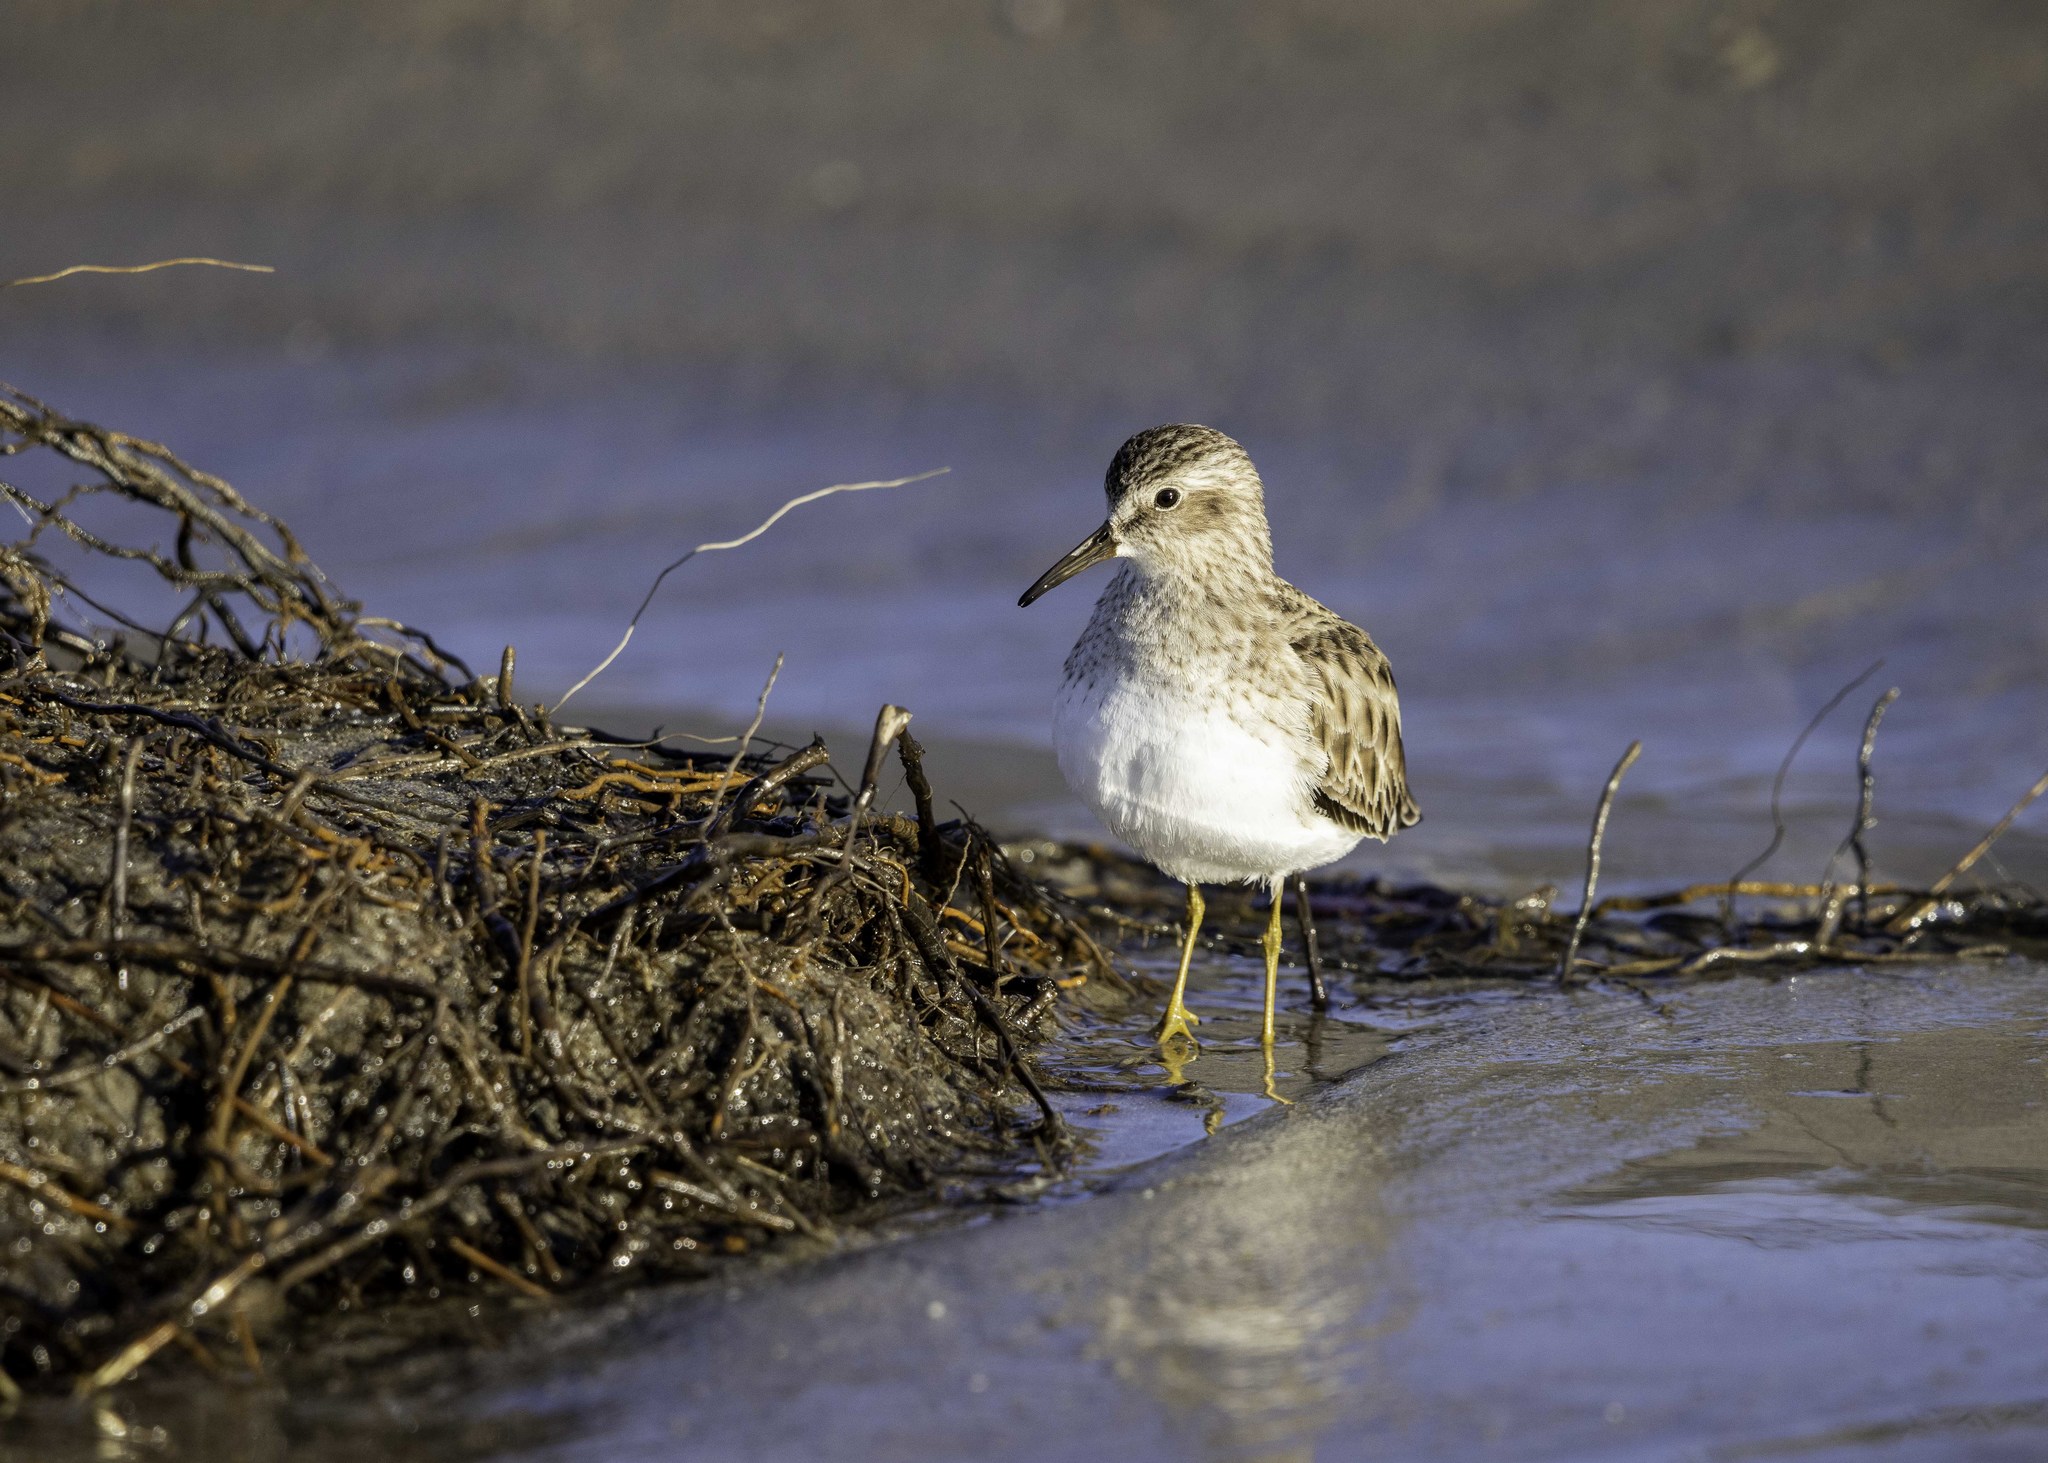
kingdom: Animalia
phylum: Chordata
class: Aves
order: Charadriiformes
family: Scolopacidae
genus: Calidris
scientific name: Calidris minutilla
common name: Least sandpiper
